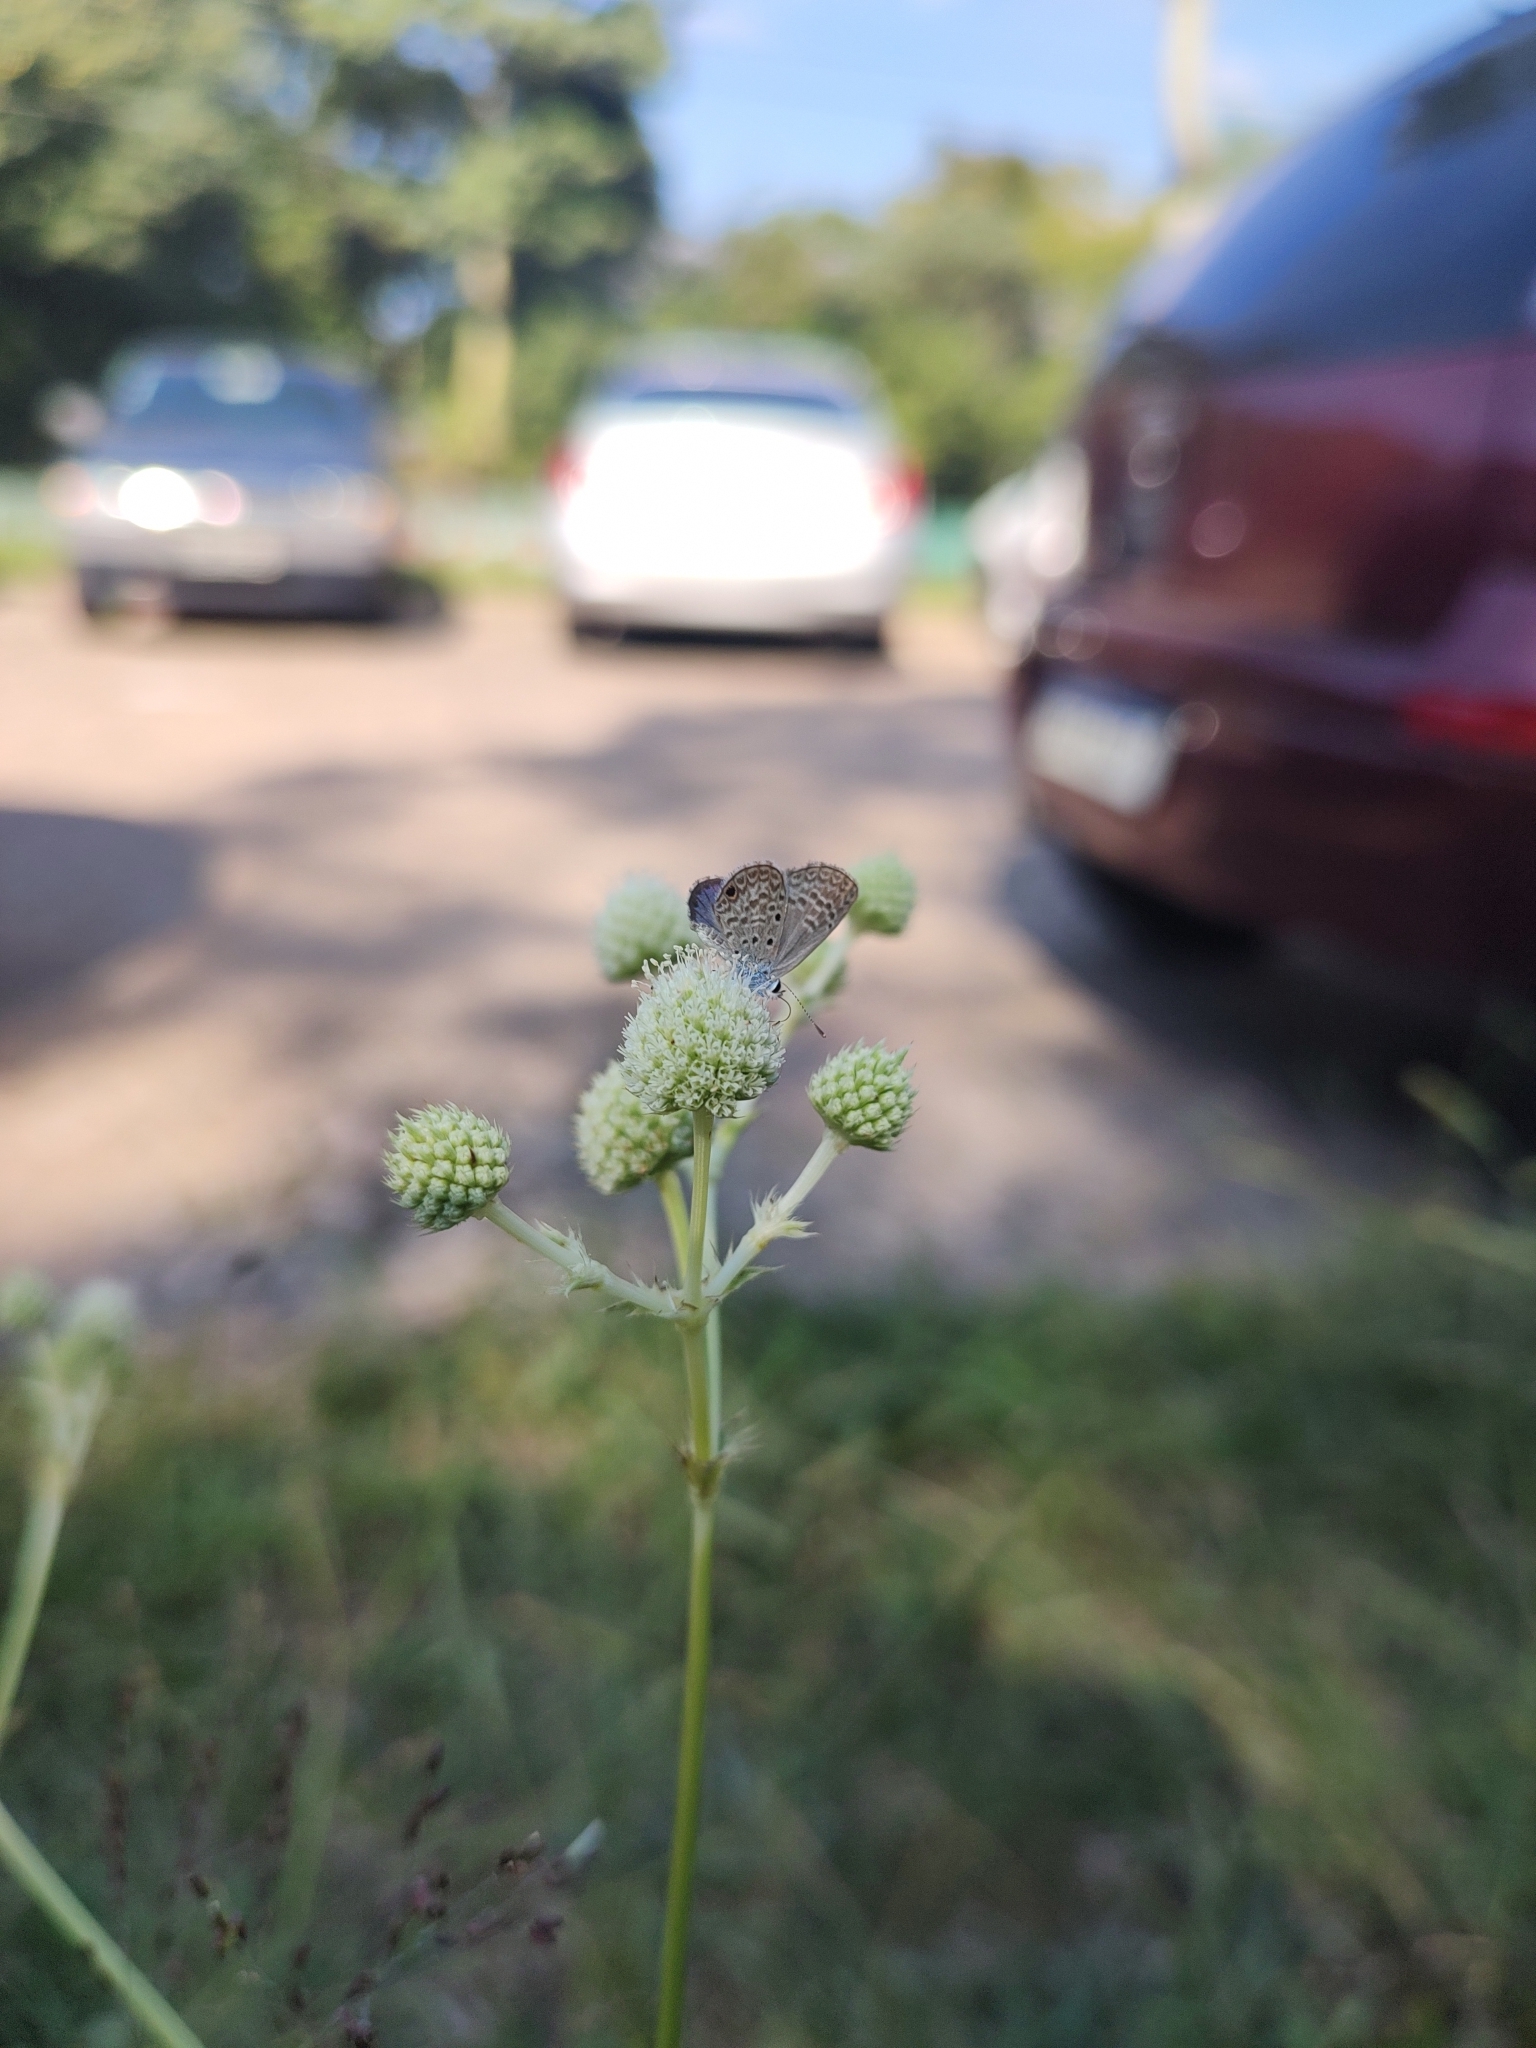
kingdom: Animalia
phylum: Arthropoda
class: Insecta
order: Lepidoptera
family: Lycaenidae
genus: Hemiargus
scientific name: Hemiargus hanno
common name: Common blue
